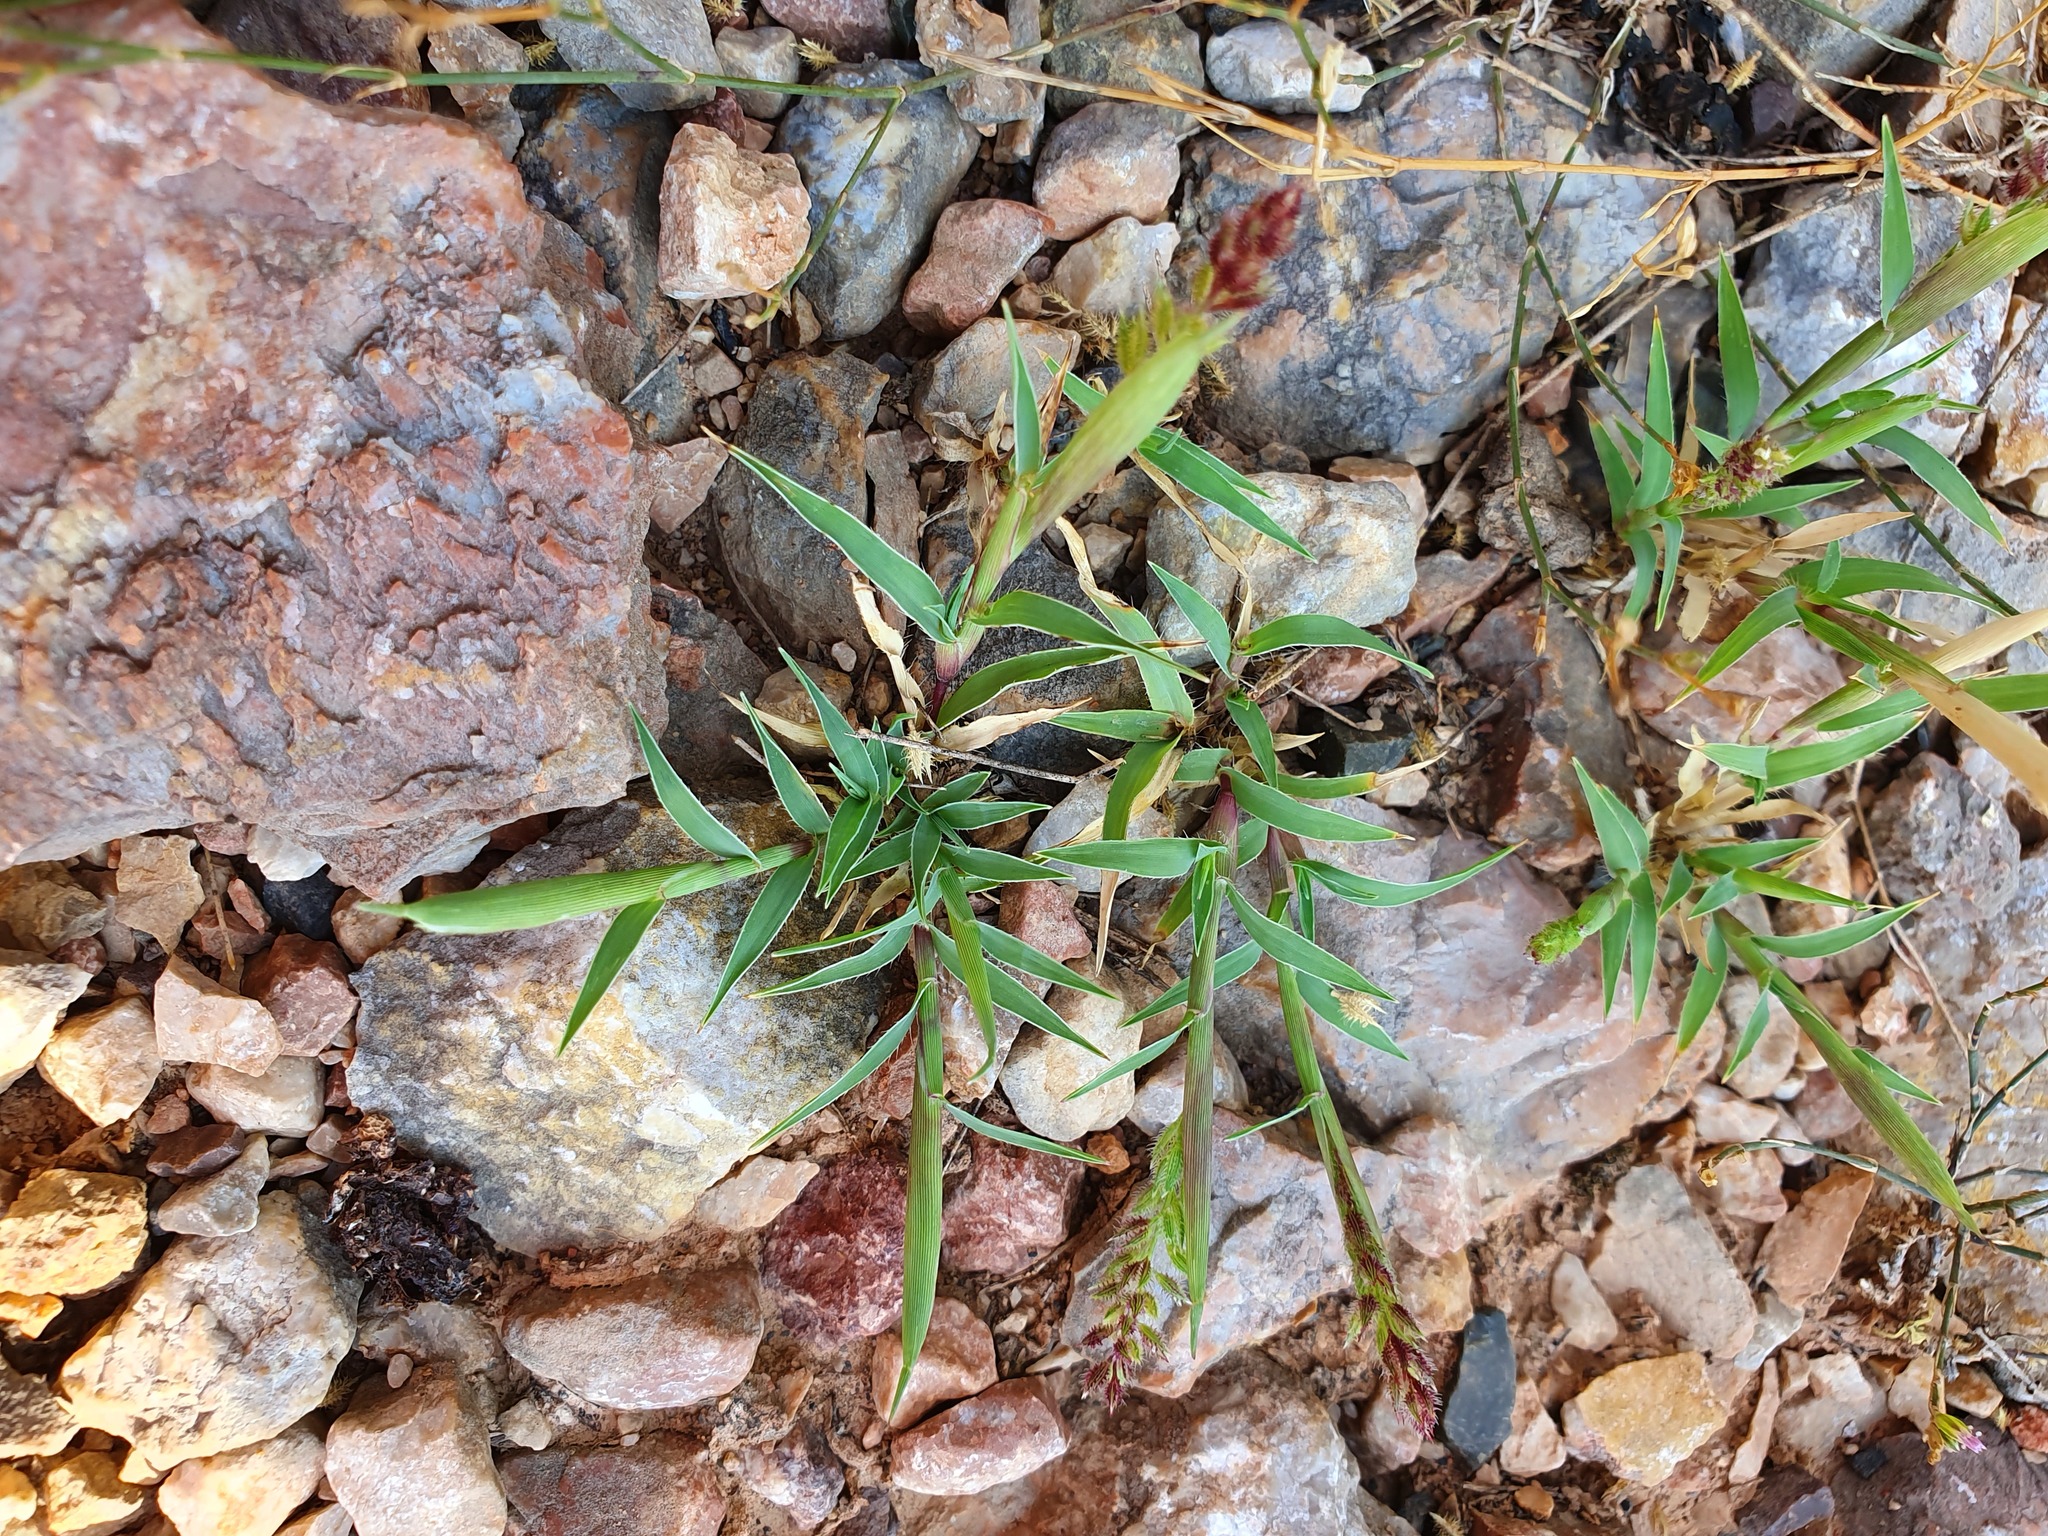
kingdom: Plantae
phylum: Tracheophyta
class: Liliopsida
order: Poales
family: Poaceae
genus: Tragus
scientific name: Tragus racemosus
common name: European bur-grass
